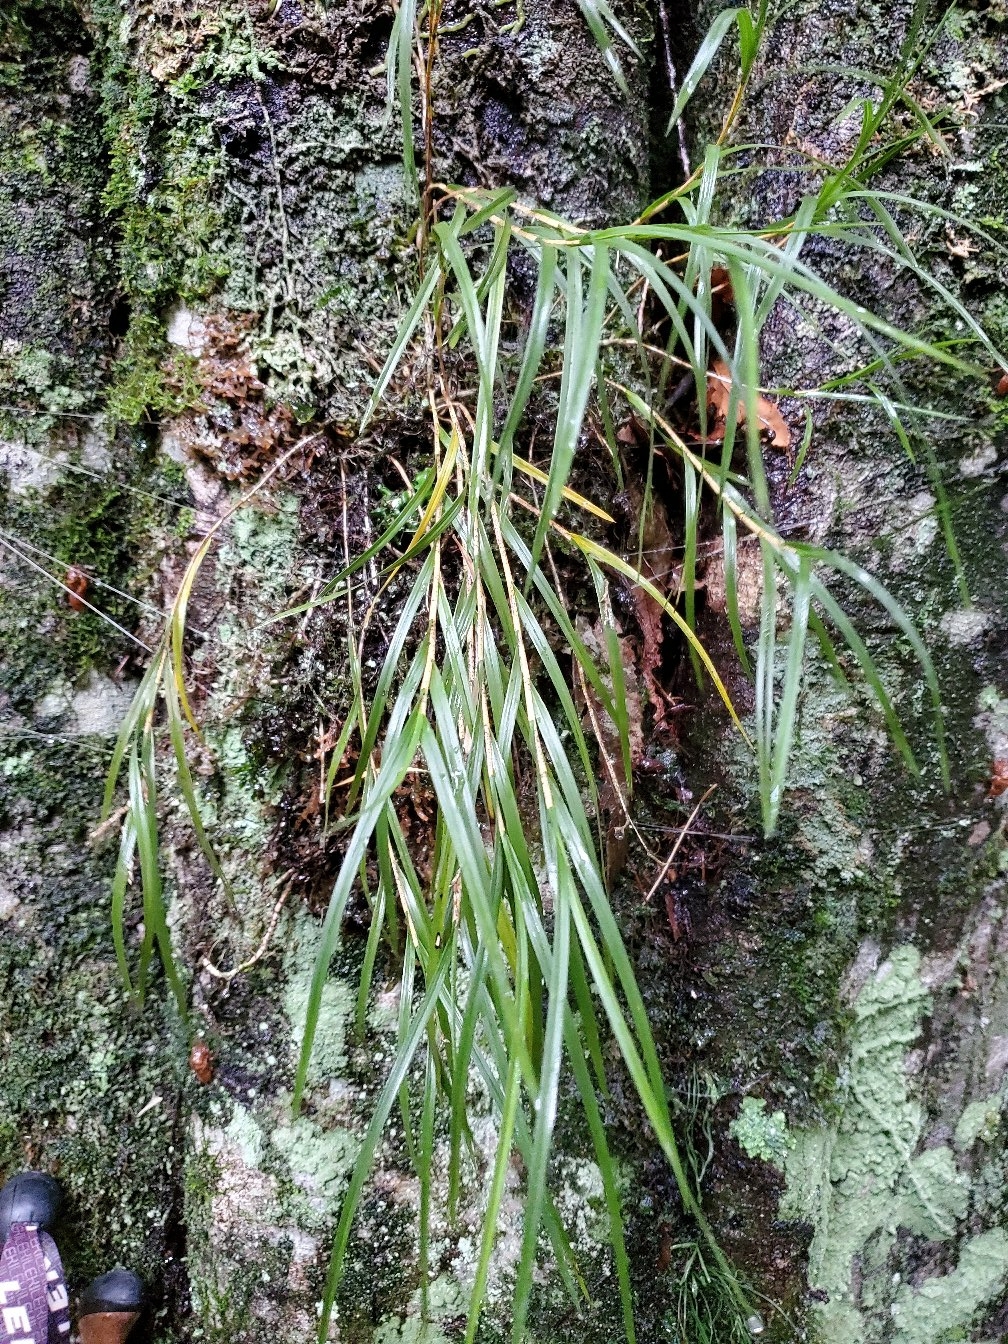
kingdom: Plantae
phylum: Tracheophyta
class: Liliopsida
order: Asparagales
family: Orchidaceae
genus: Earina
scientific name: Earina mucronata
